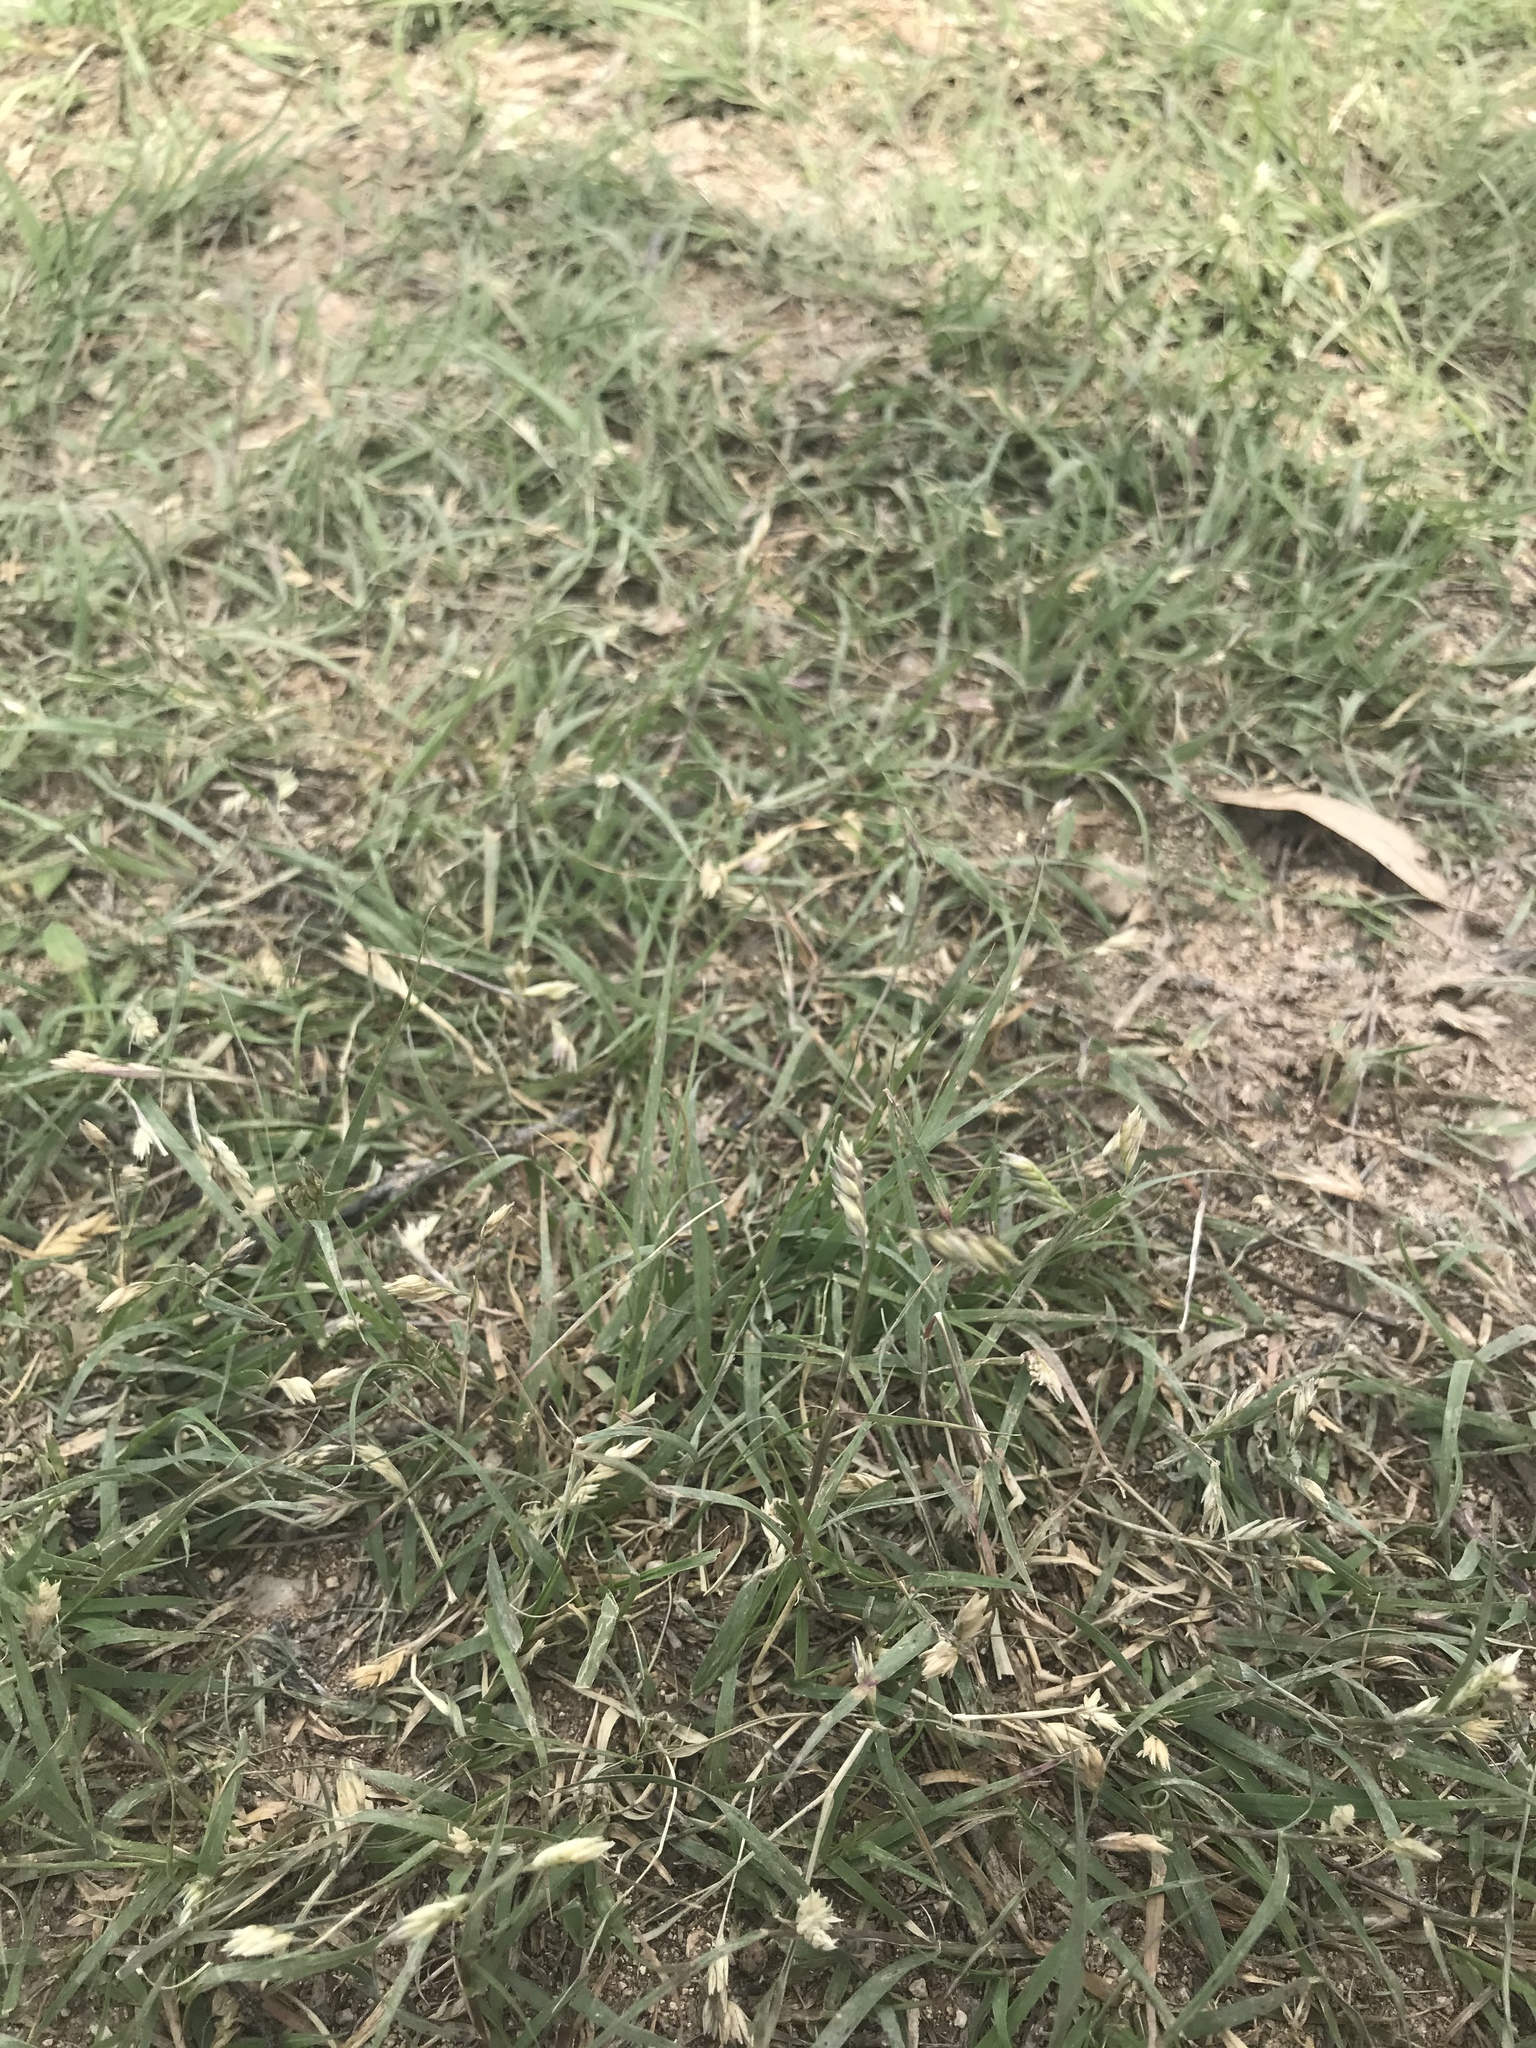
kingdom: Plantae
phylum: Tracheophyta
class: Liliopsida
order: Poales
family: Poaceae
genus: Bouteloua
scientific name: Bouteloua dactyloides
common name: Buffalo grass
